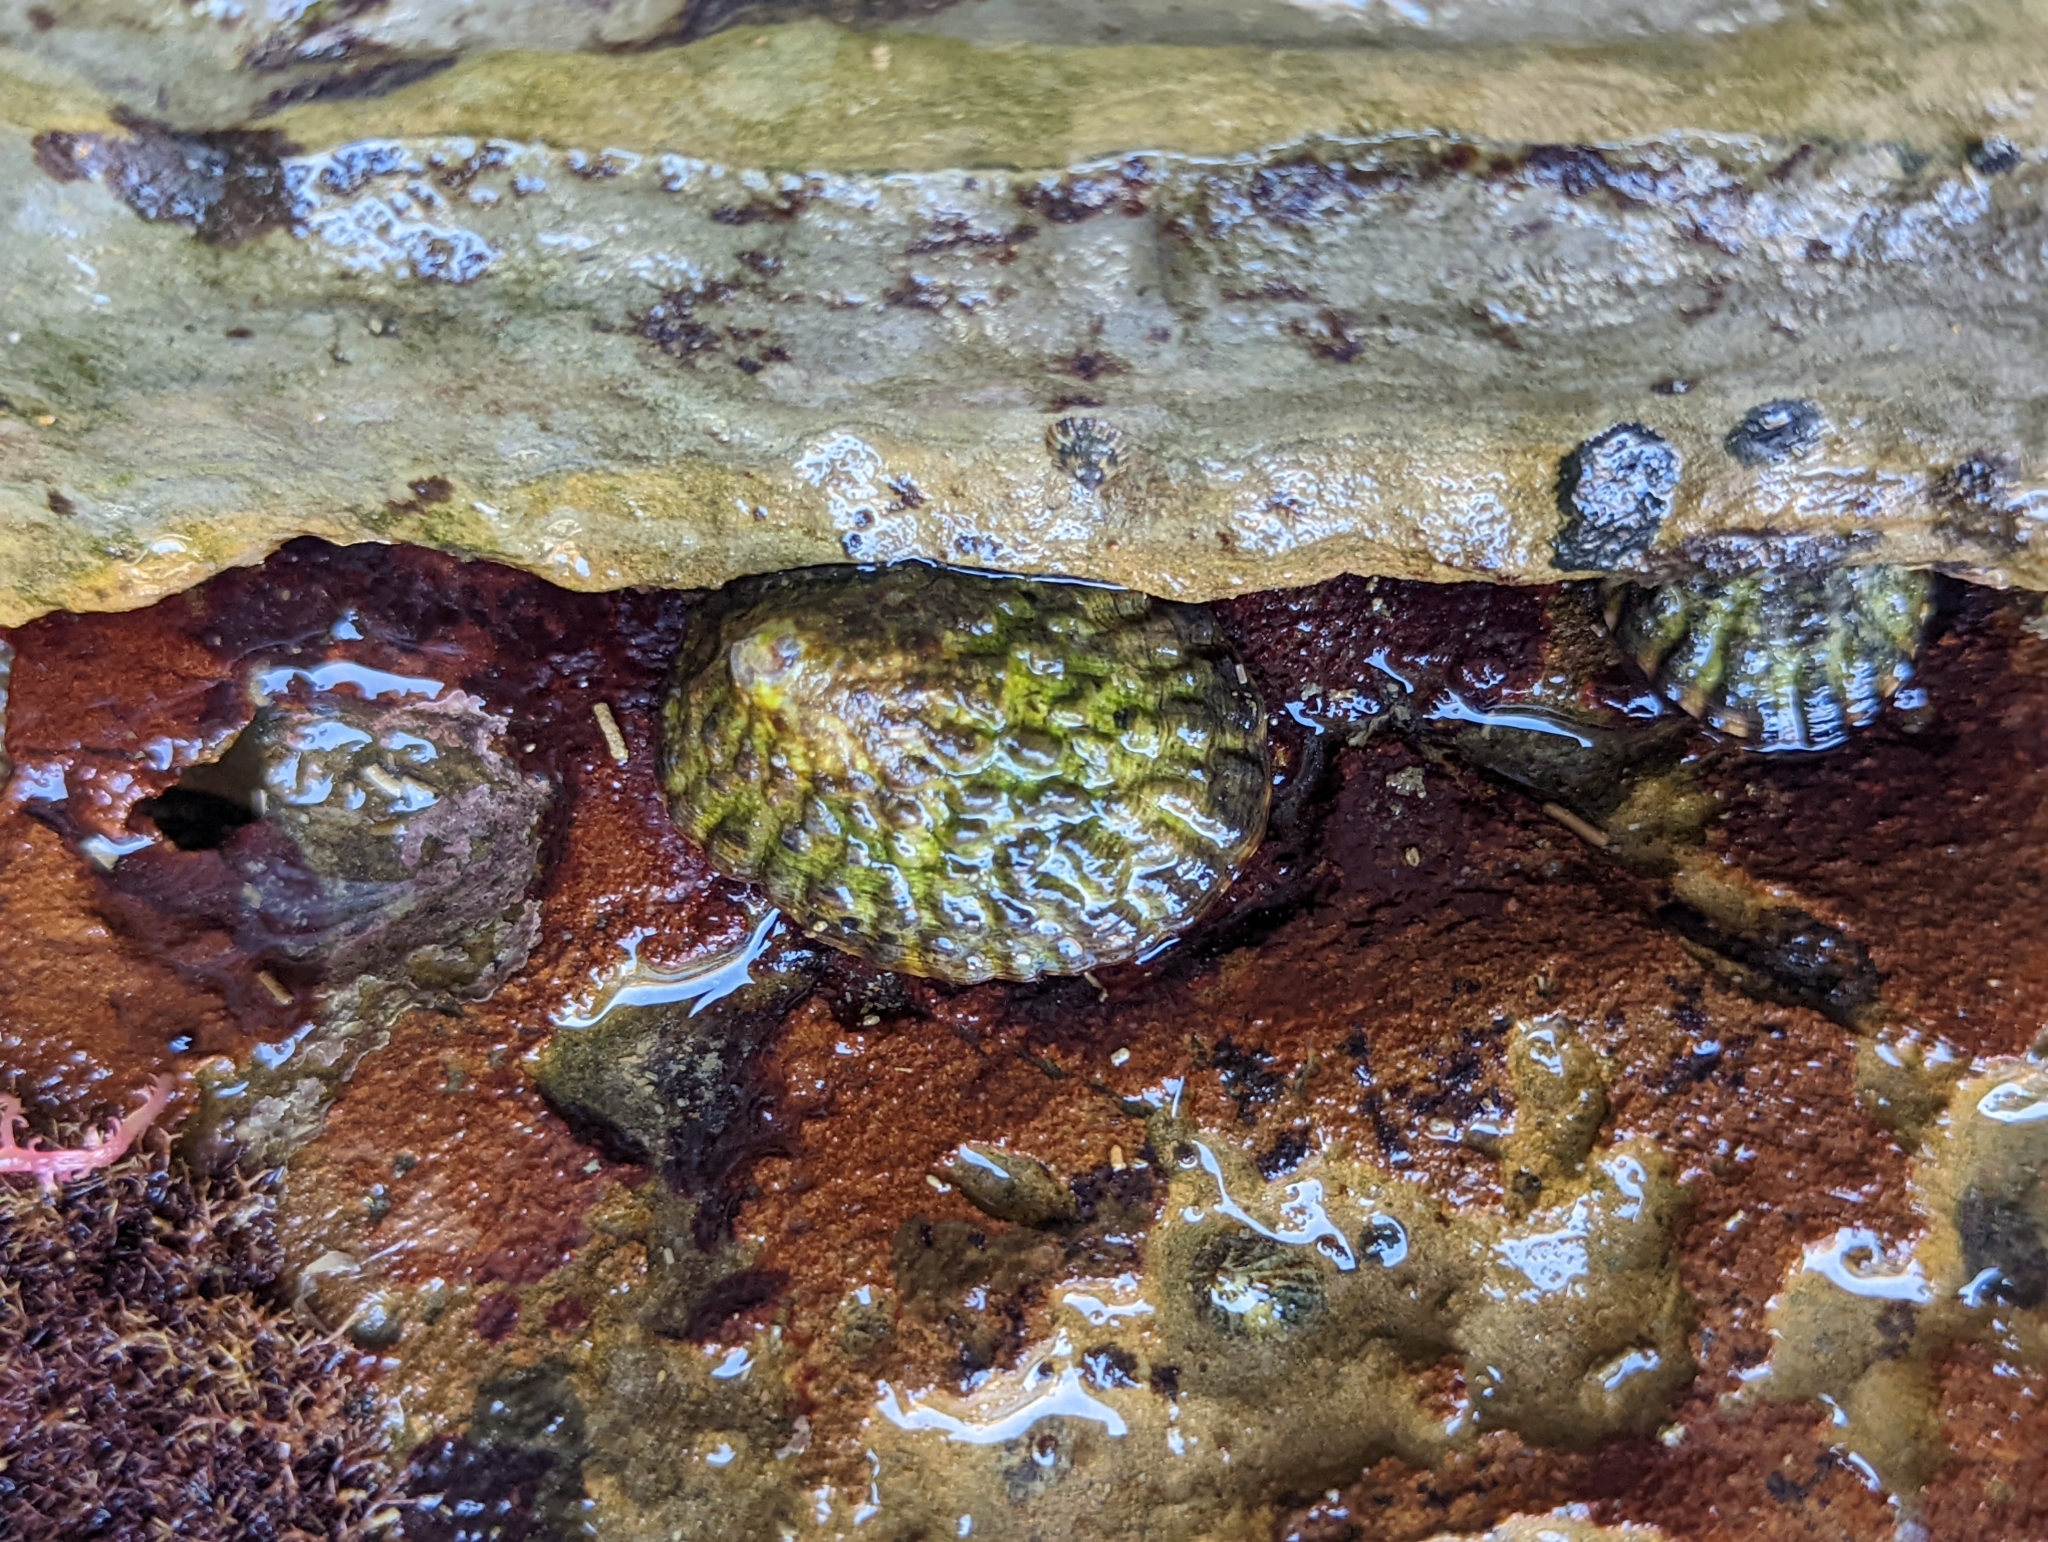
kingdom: Animalia
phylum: Mollusca
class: Gastropoda
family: Lottiidae
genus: Lottia
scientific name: Lottia gigantea
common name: Owl limpet
